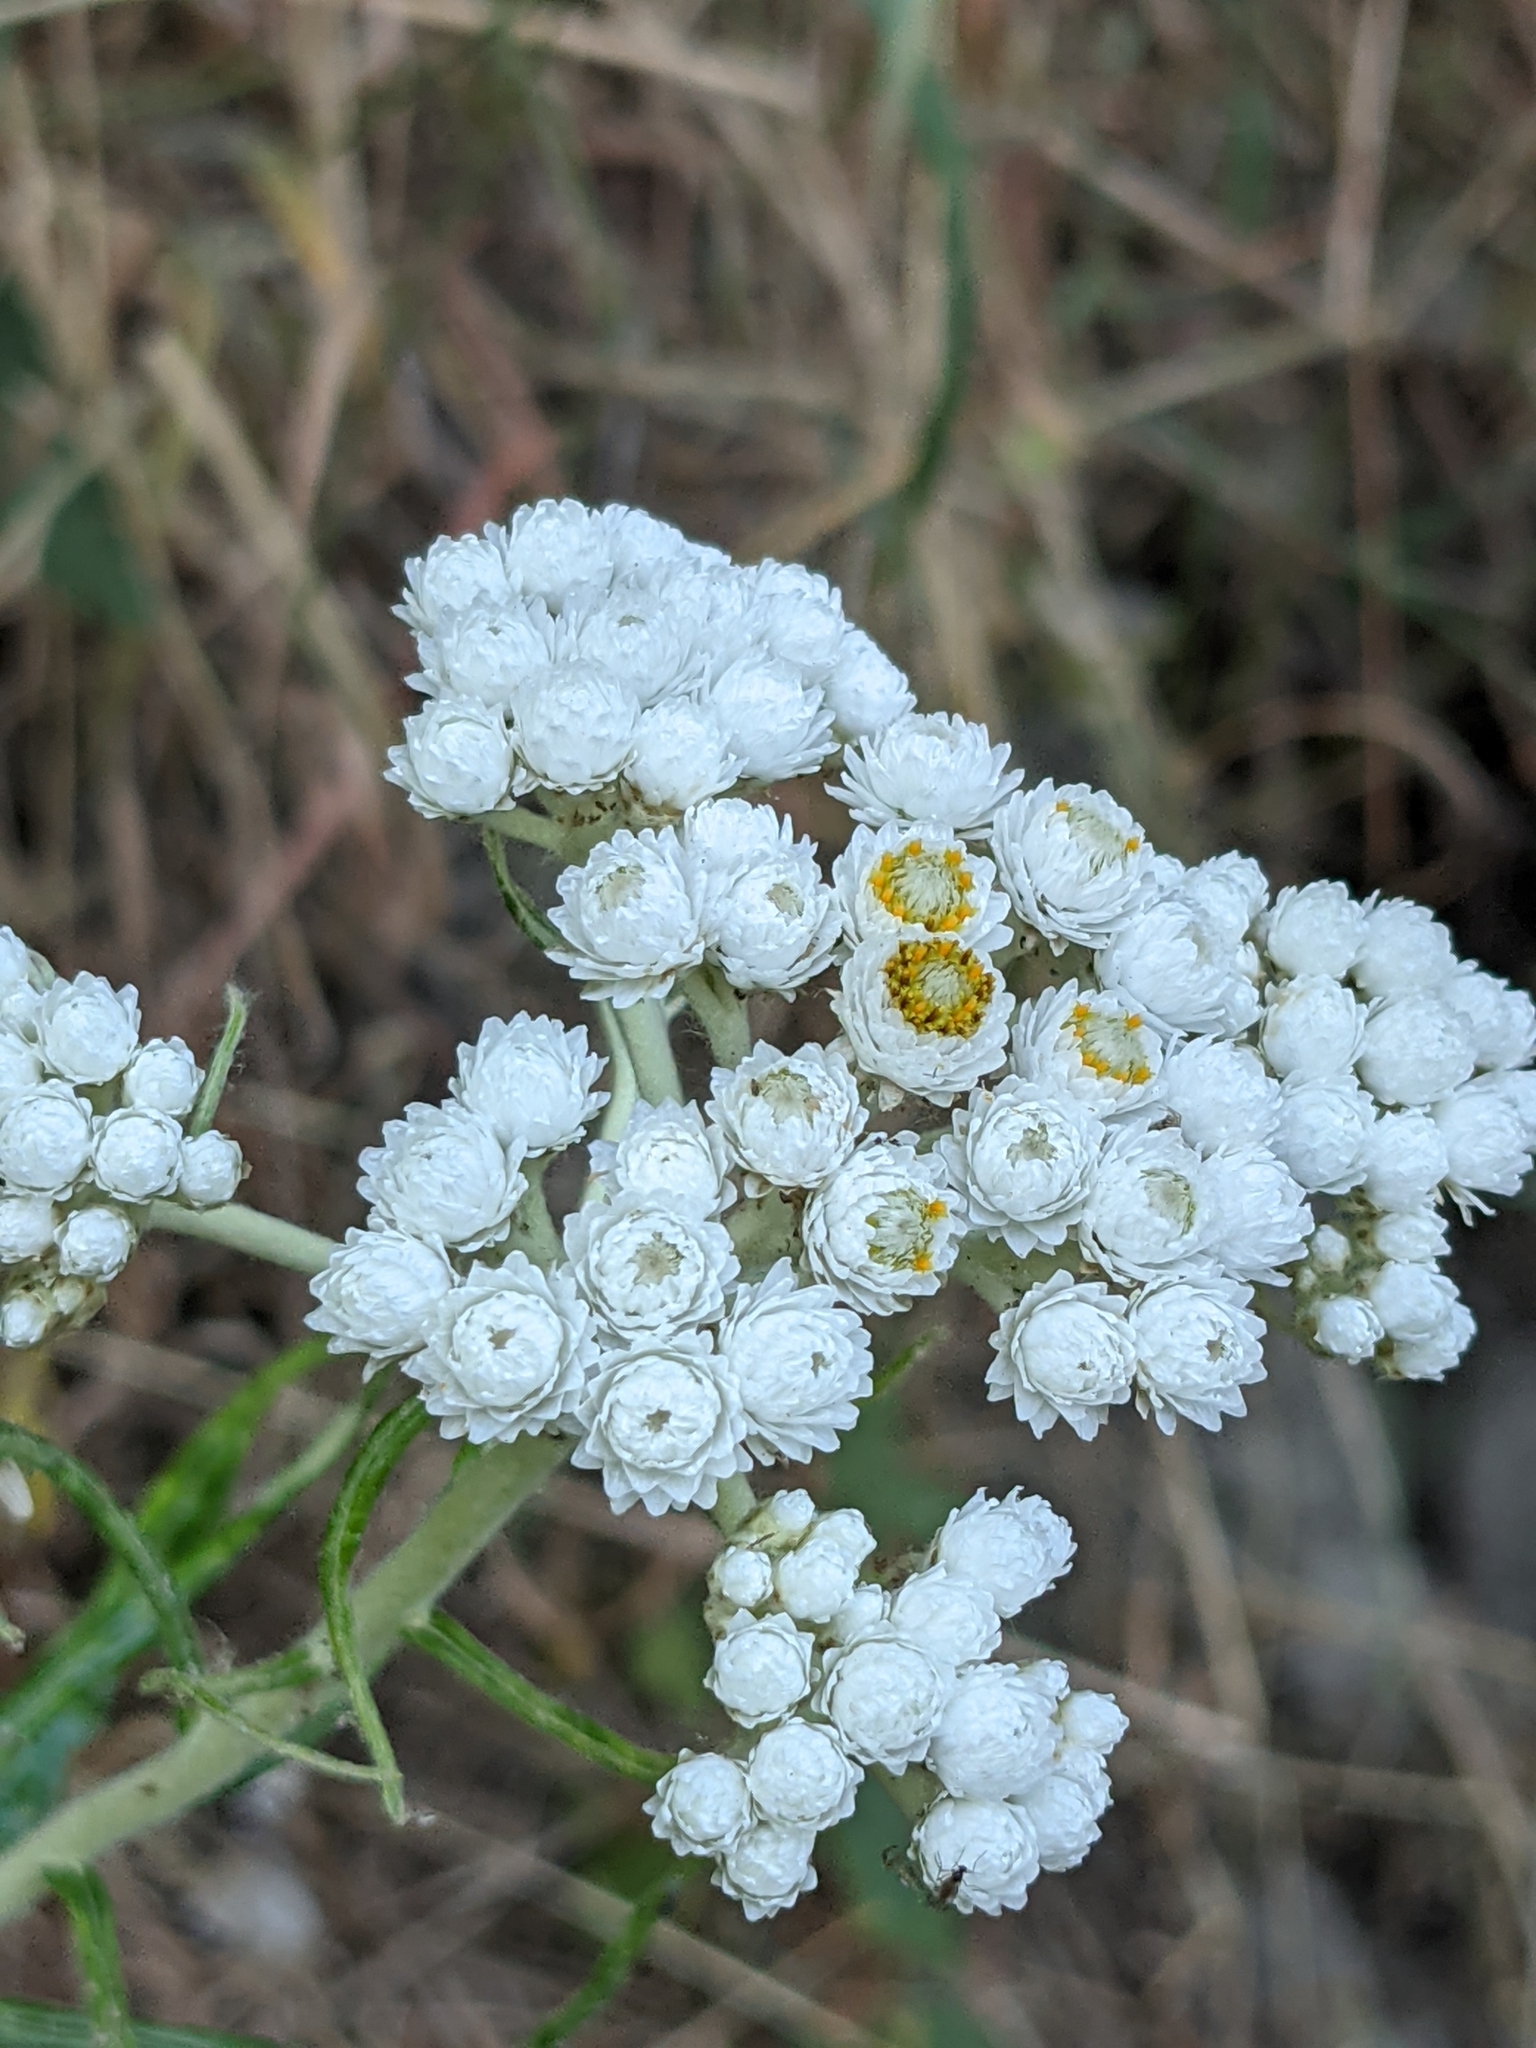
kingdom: Plantae
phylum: Tracheophyta
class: Magnoliopsida
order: Asterales
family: Asteraceae
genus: Anaphalis
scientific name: Anaphalis margaritacea
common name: Pearly everlasting
